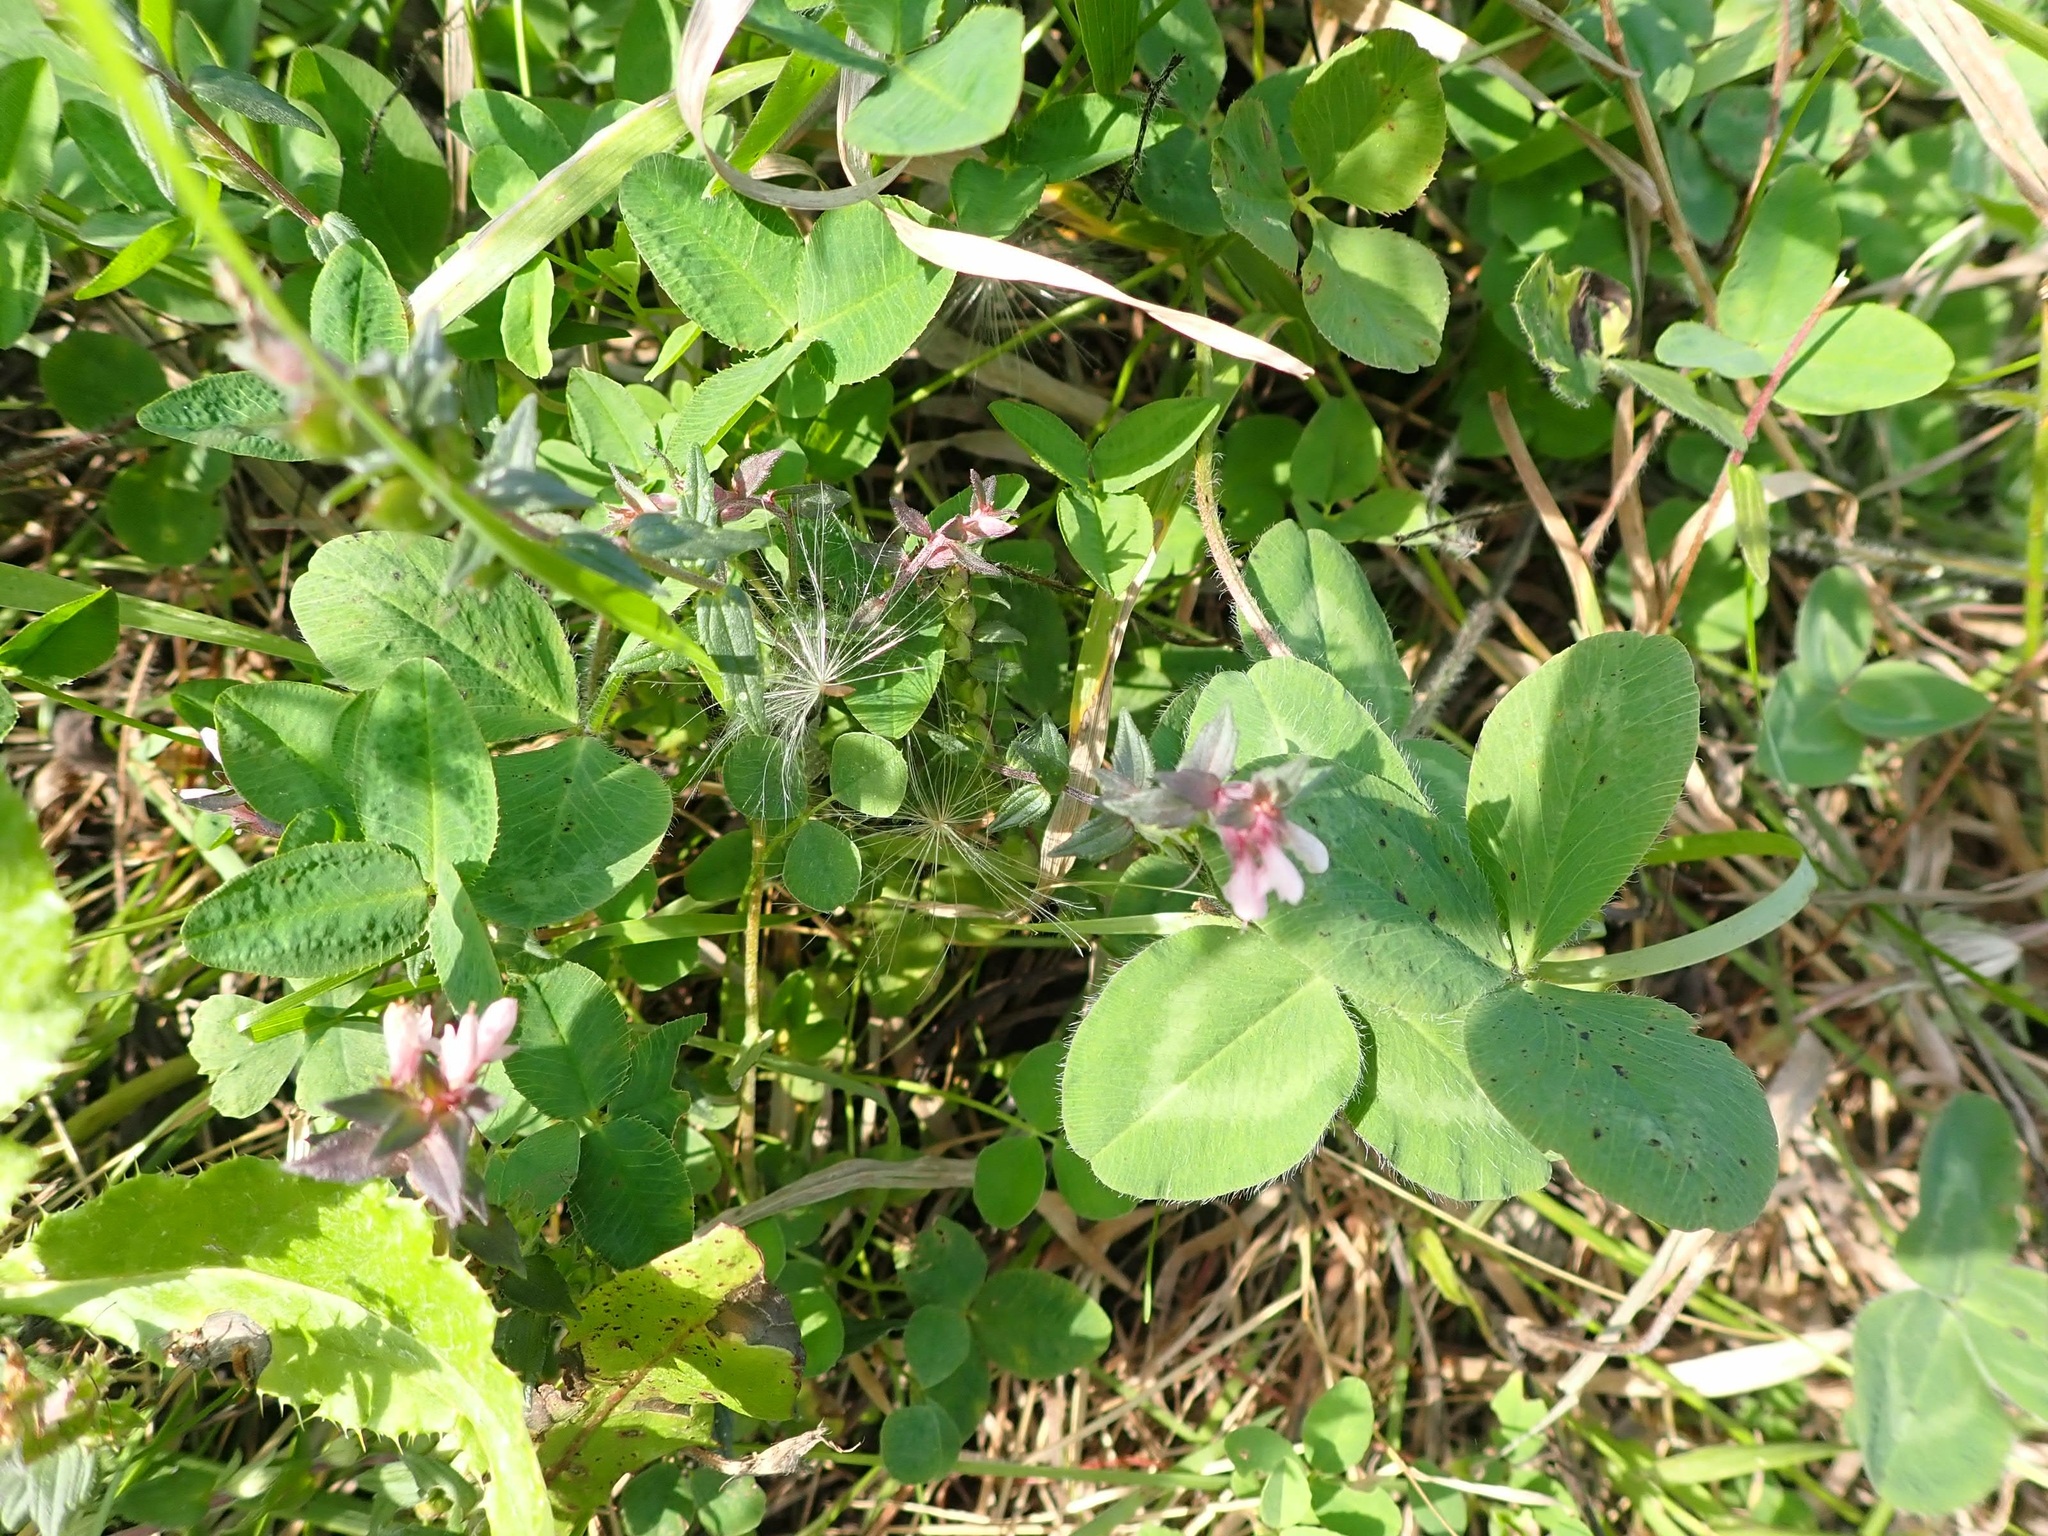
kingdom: Plantae
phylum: Tracheophyta
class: Magnoliopsida
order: Lamiales
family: Orobanchaceae
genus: Odontites
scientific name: Odontites vulgaris
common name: Broomrape
